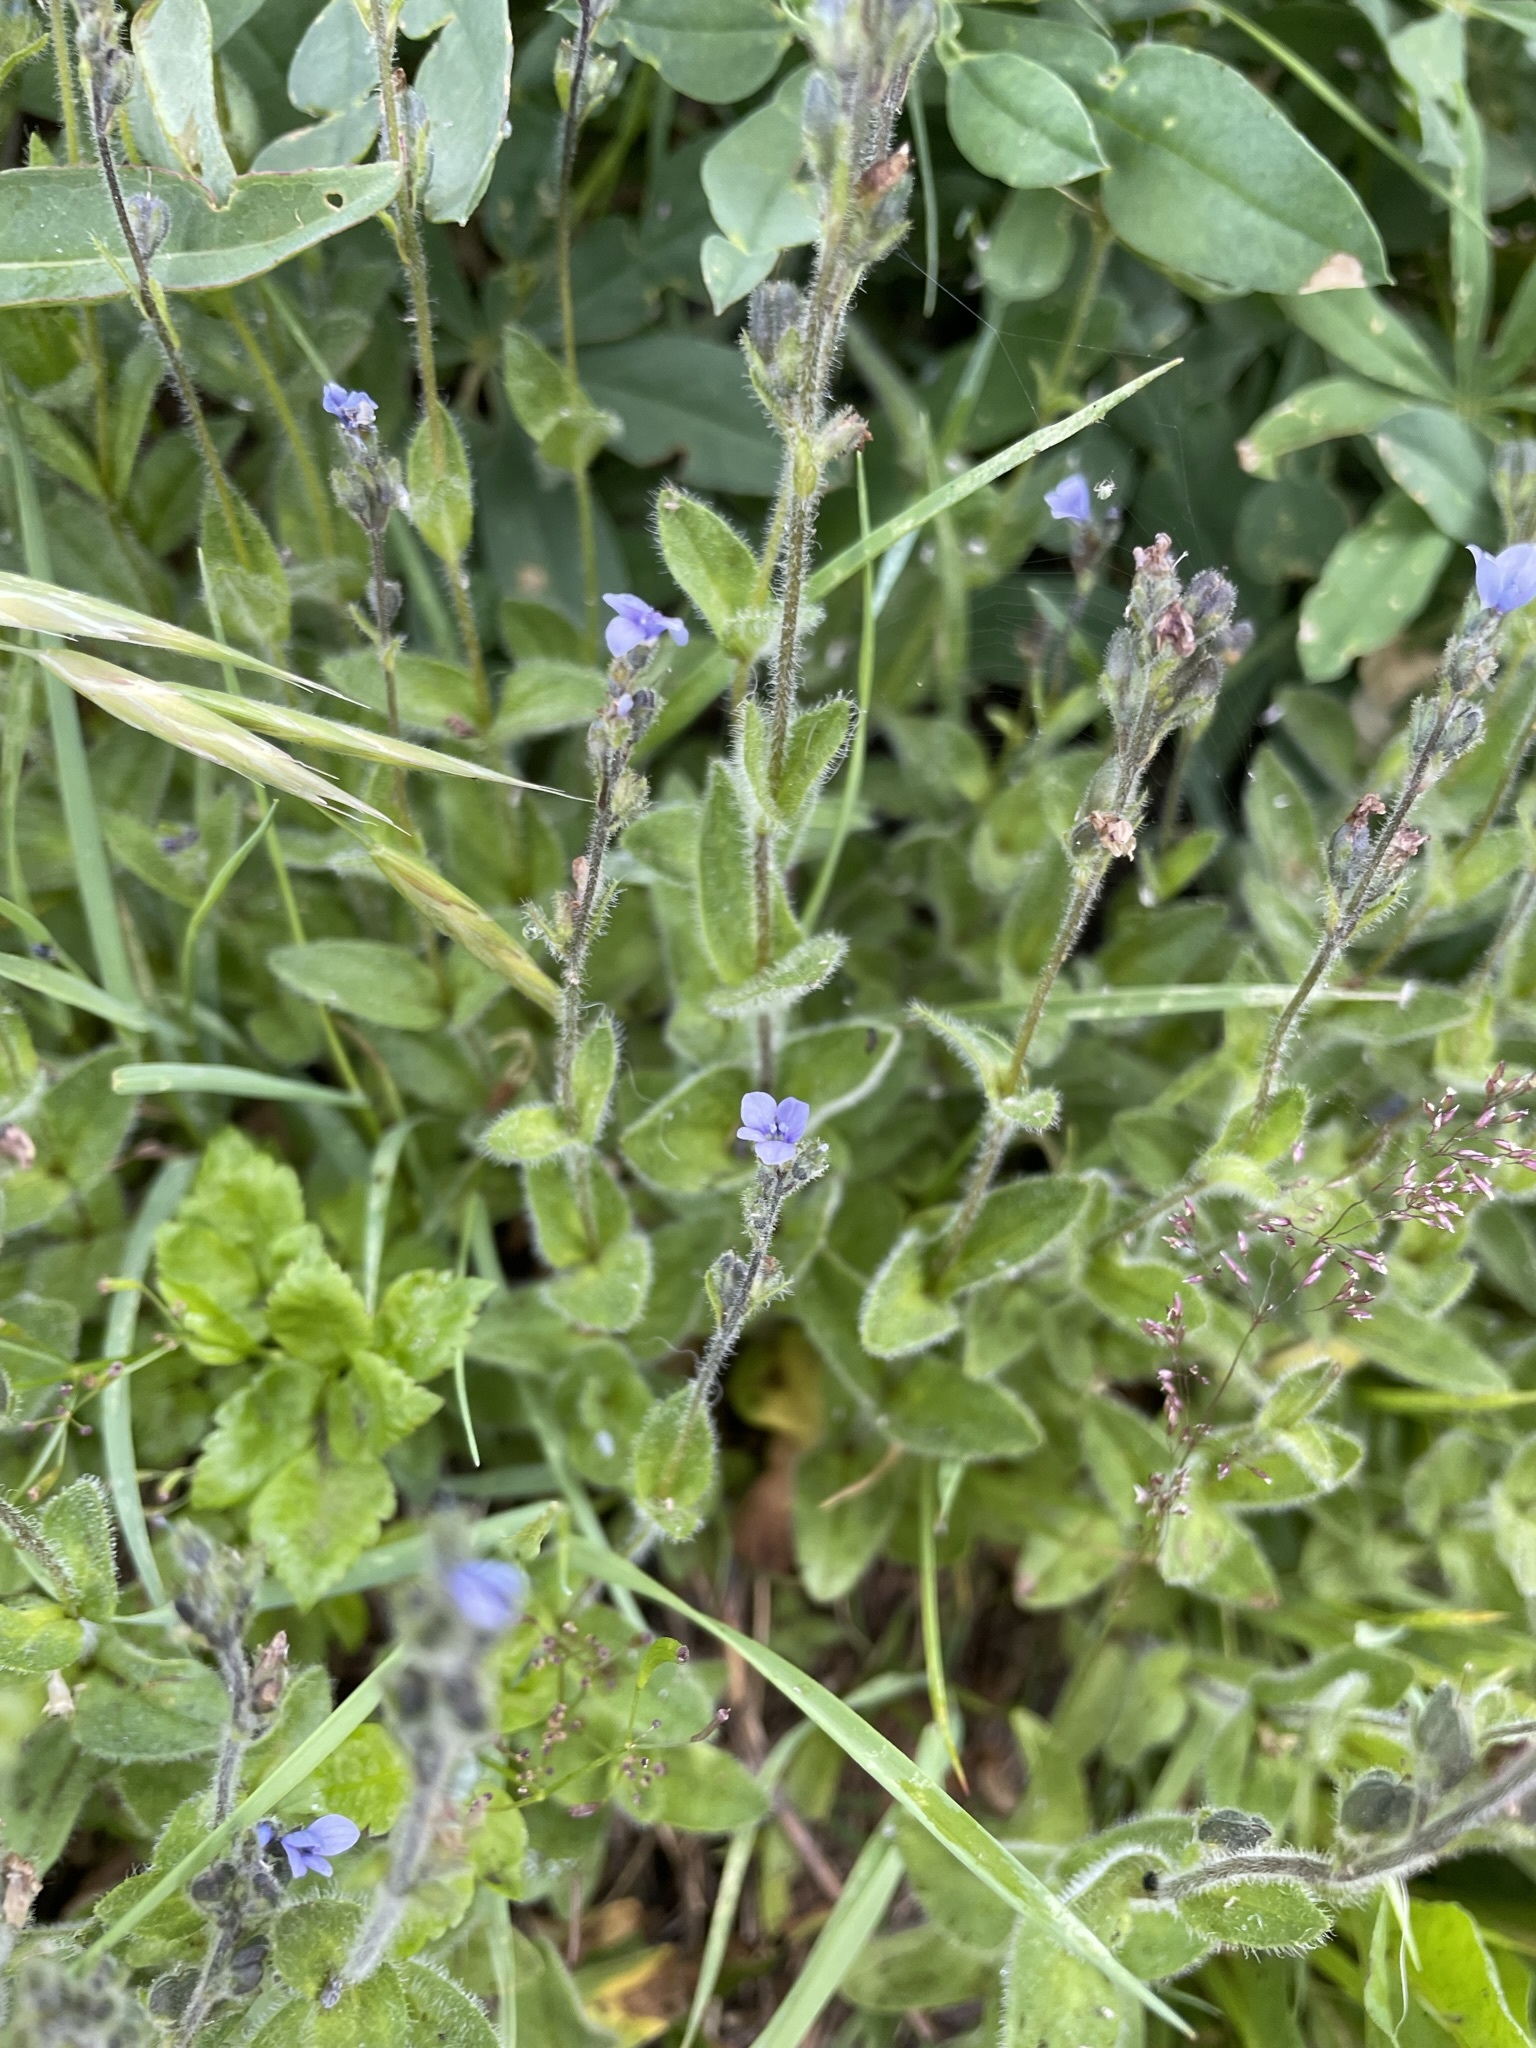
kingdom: Plantae
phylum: Tracheophyta
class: Magnoliopsida
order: Lamiales
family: Plantaginaceae
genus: Veronica
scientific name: Veronica wormskjoldii
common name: American alpine speedwell
